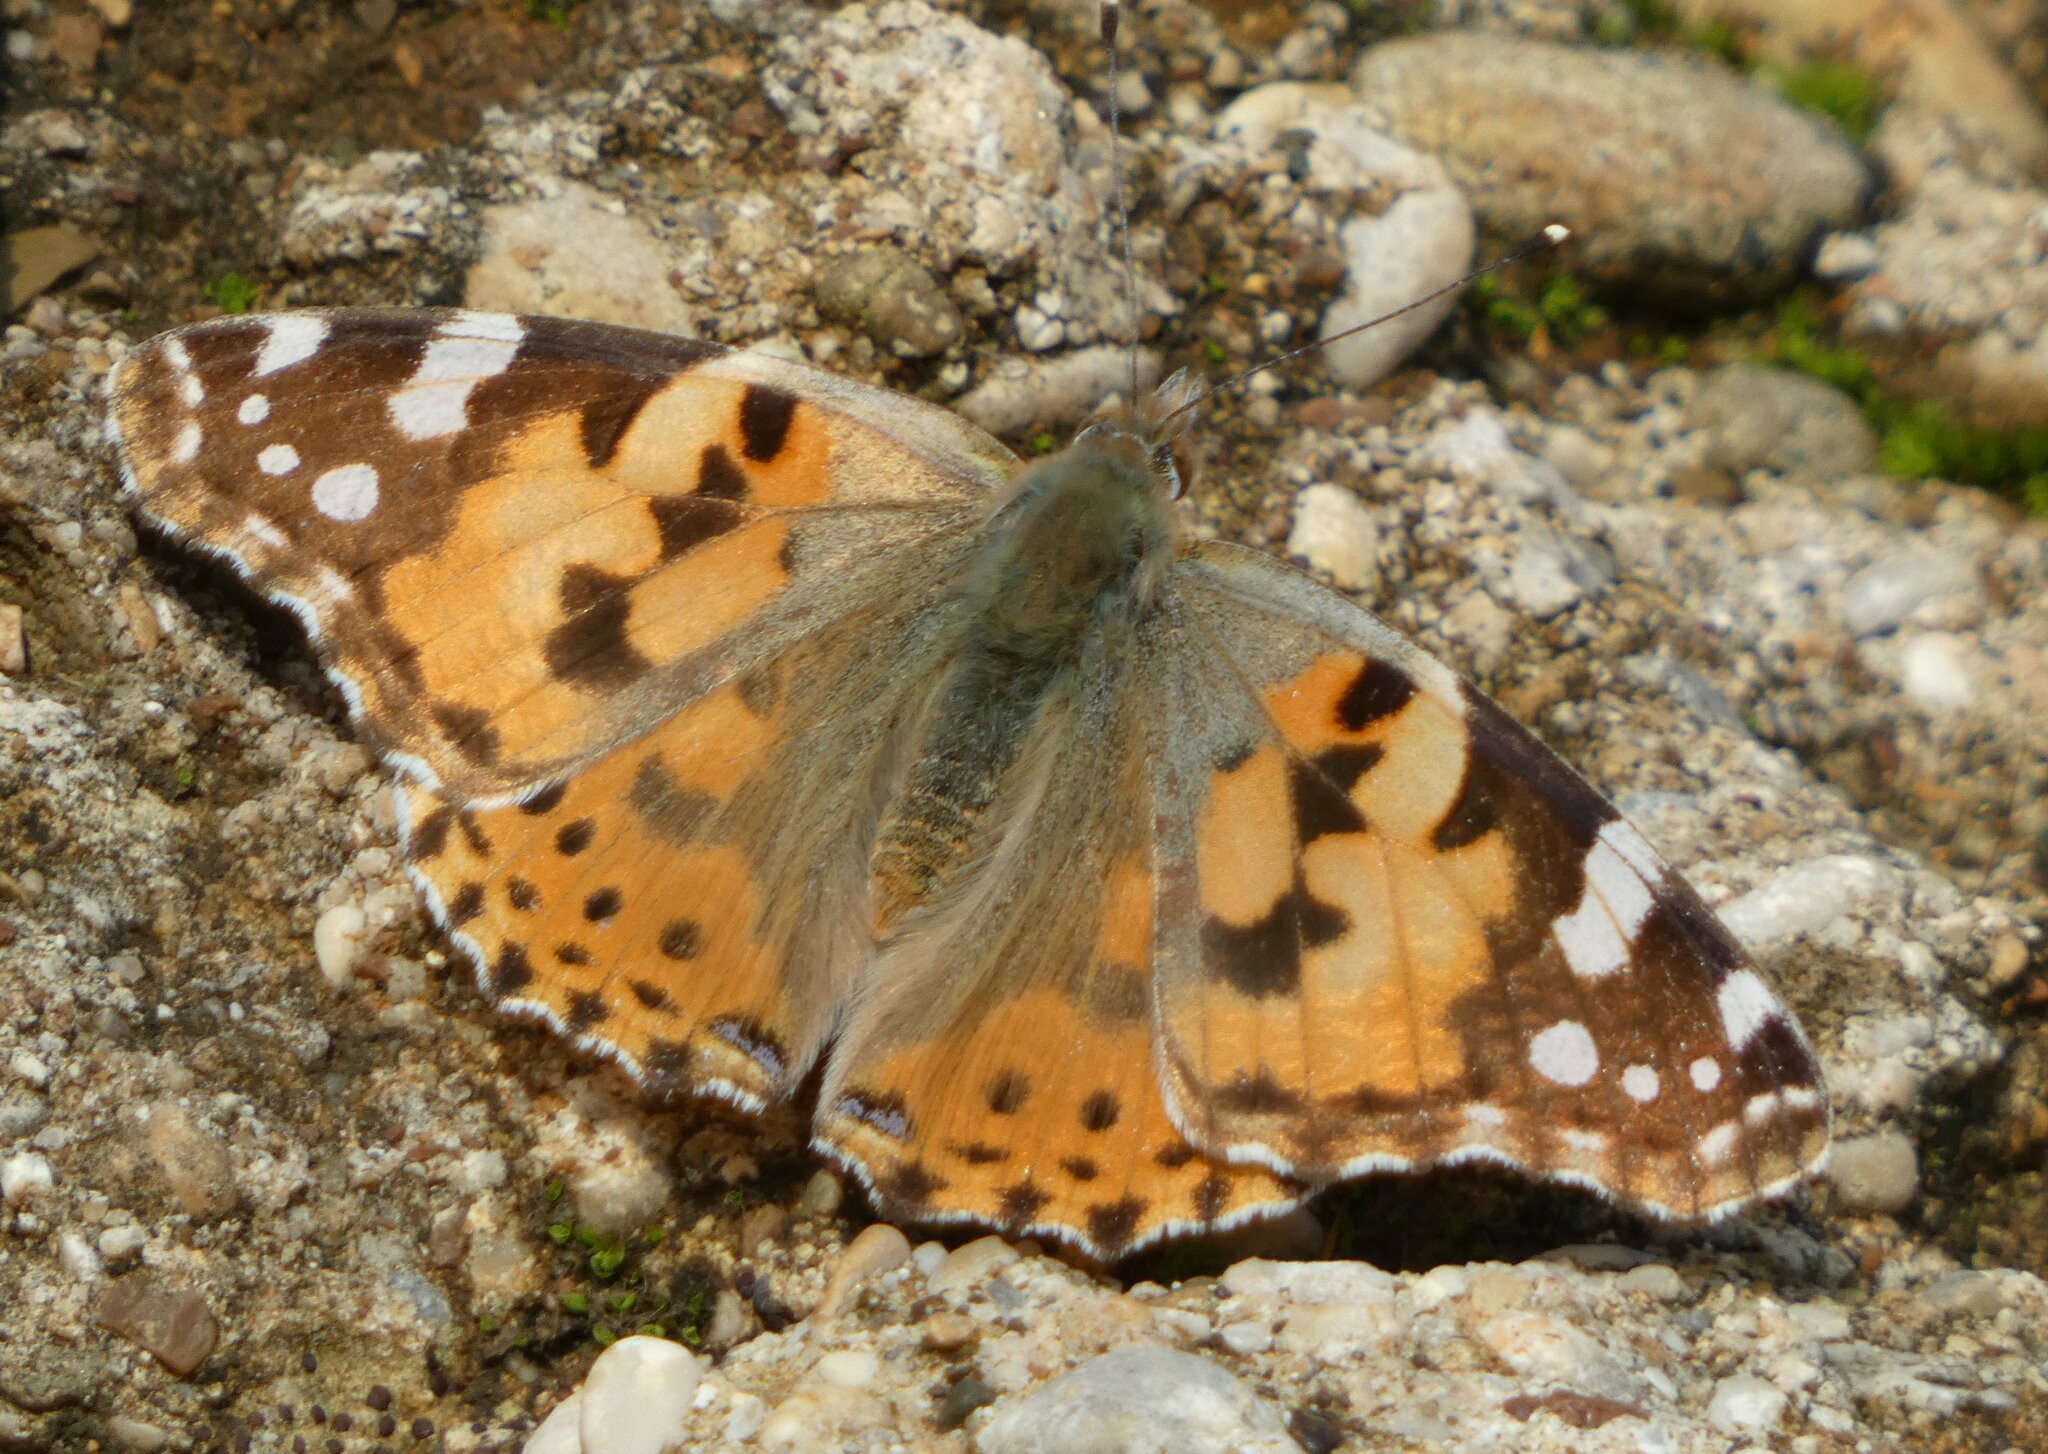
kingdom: Animalia
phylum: Arthropoda
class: Insecta
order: Lepidoptera
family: Nymphalidae
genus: Vanessa
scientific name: Vanessa cardui
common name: Painted lady
